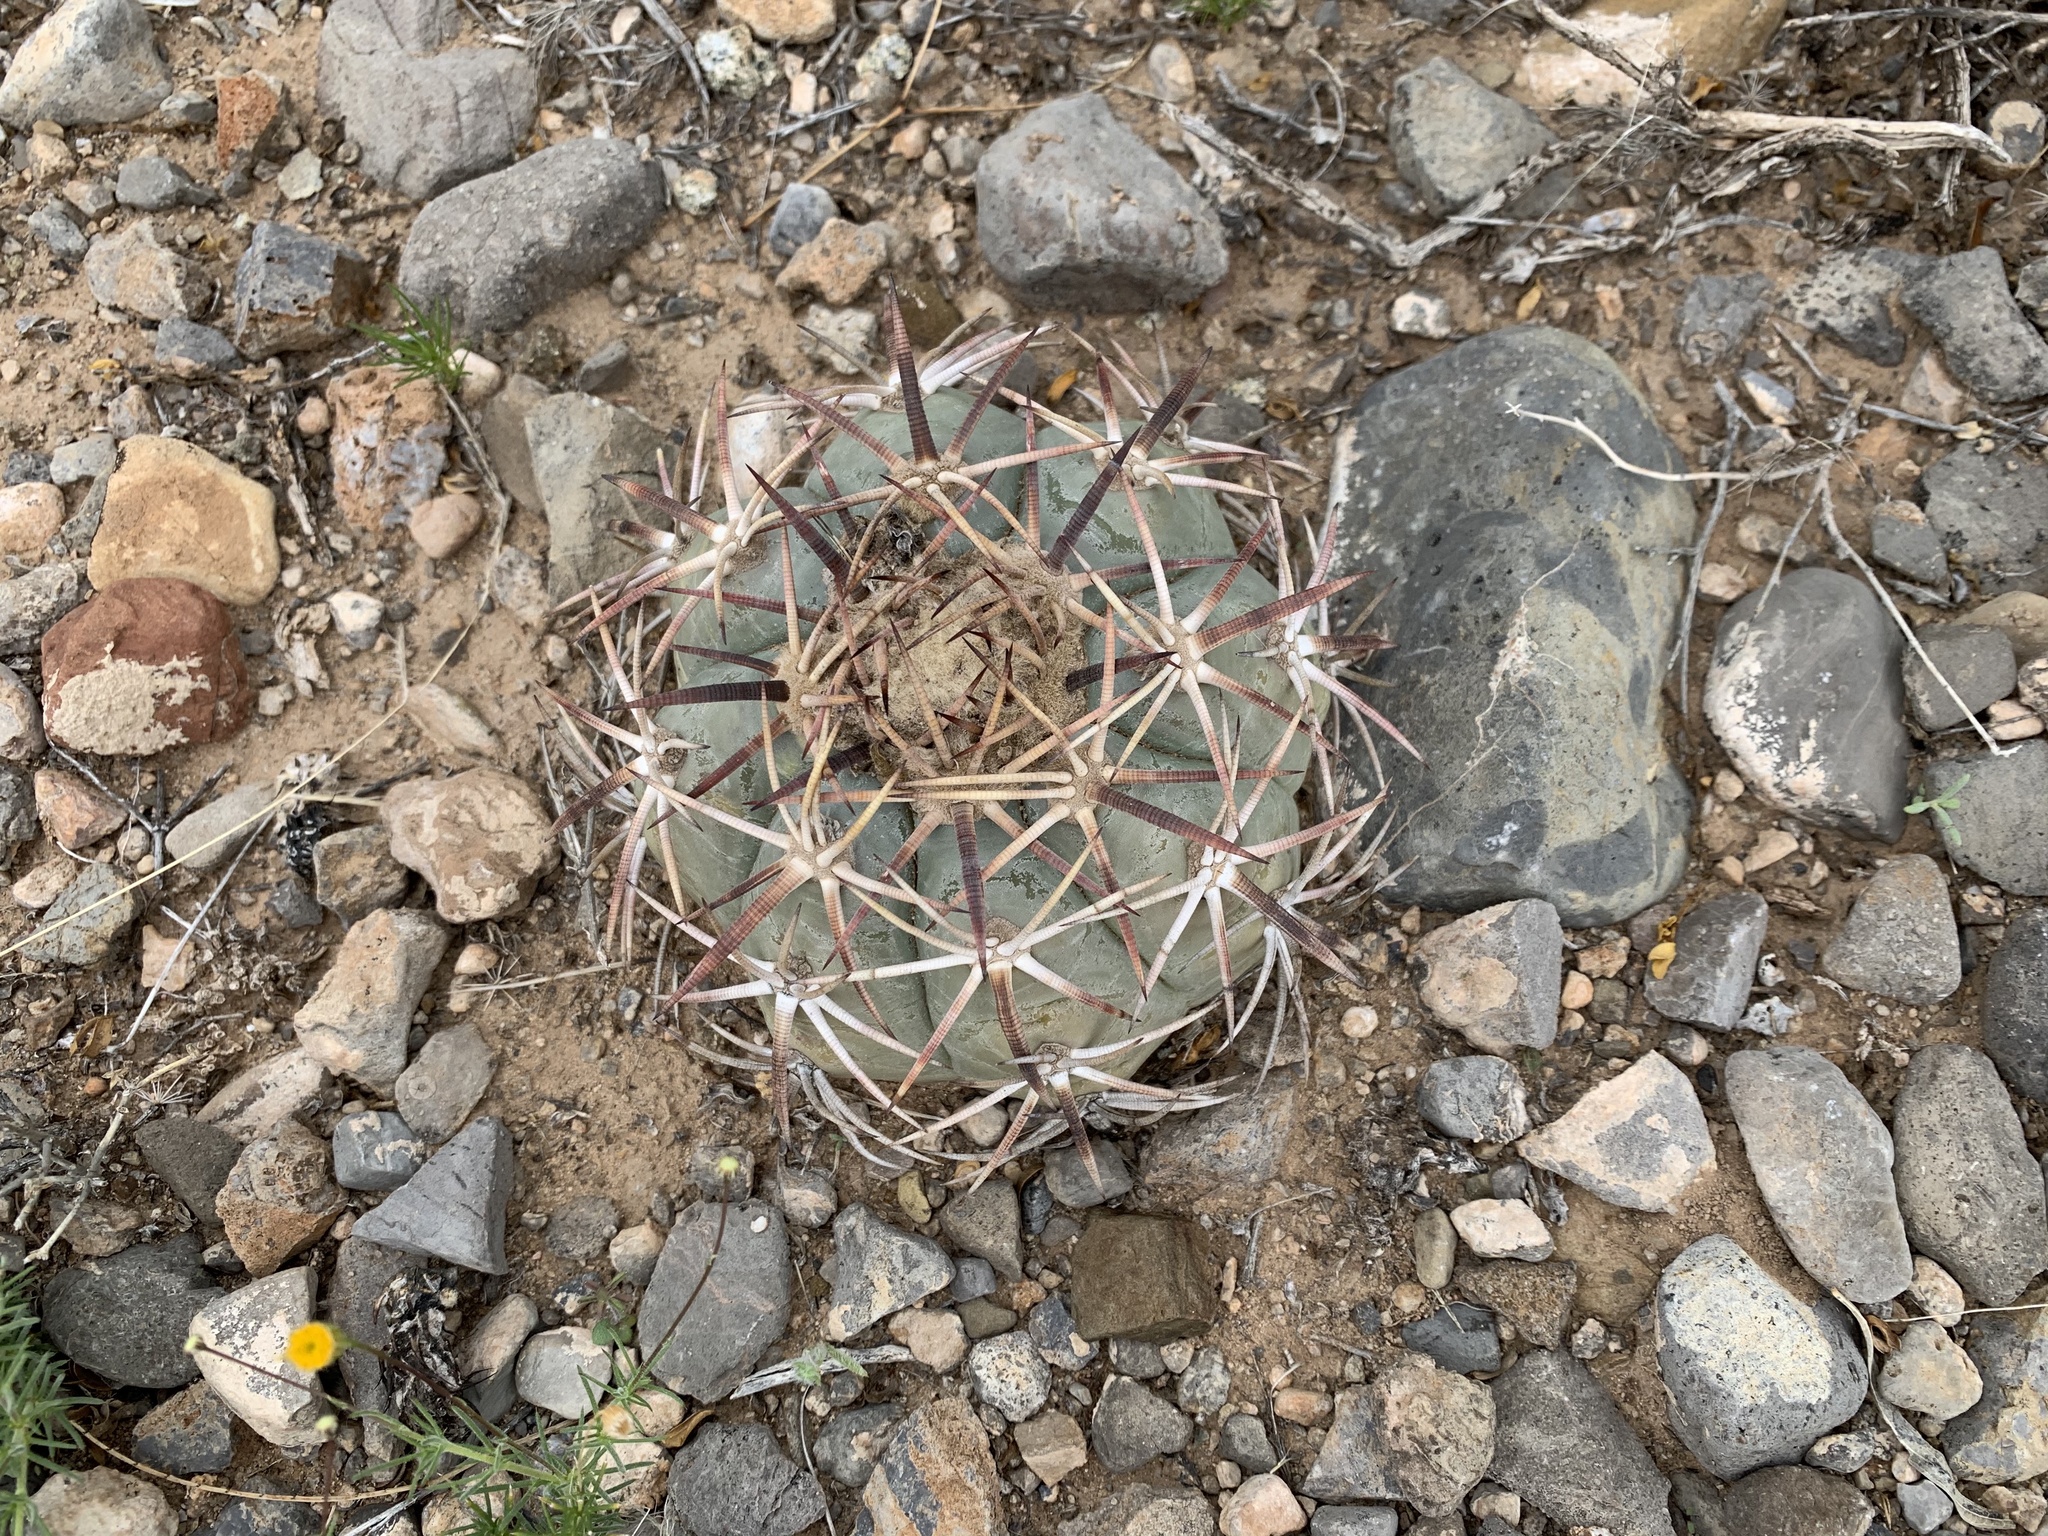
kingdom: Plantae
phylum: Tracheophyta
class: Magnoliopsida
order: Caryophyllales
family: Cactaceae
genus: Echinocactus
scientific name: Echinocactus horizonthalonius
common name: Devilshead
